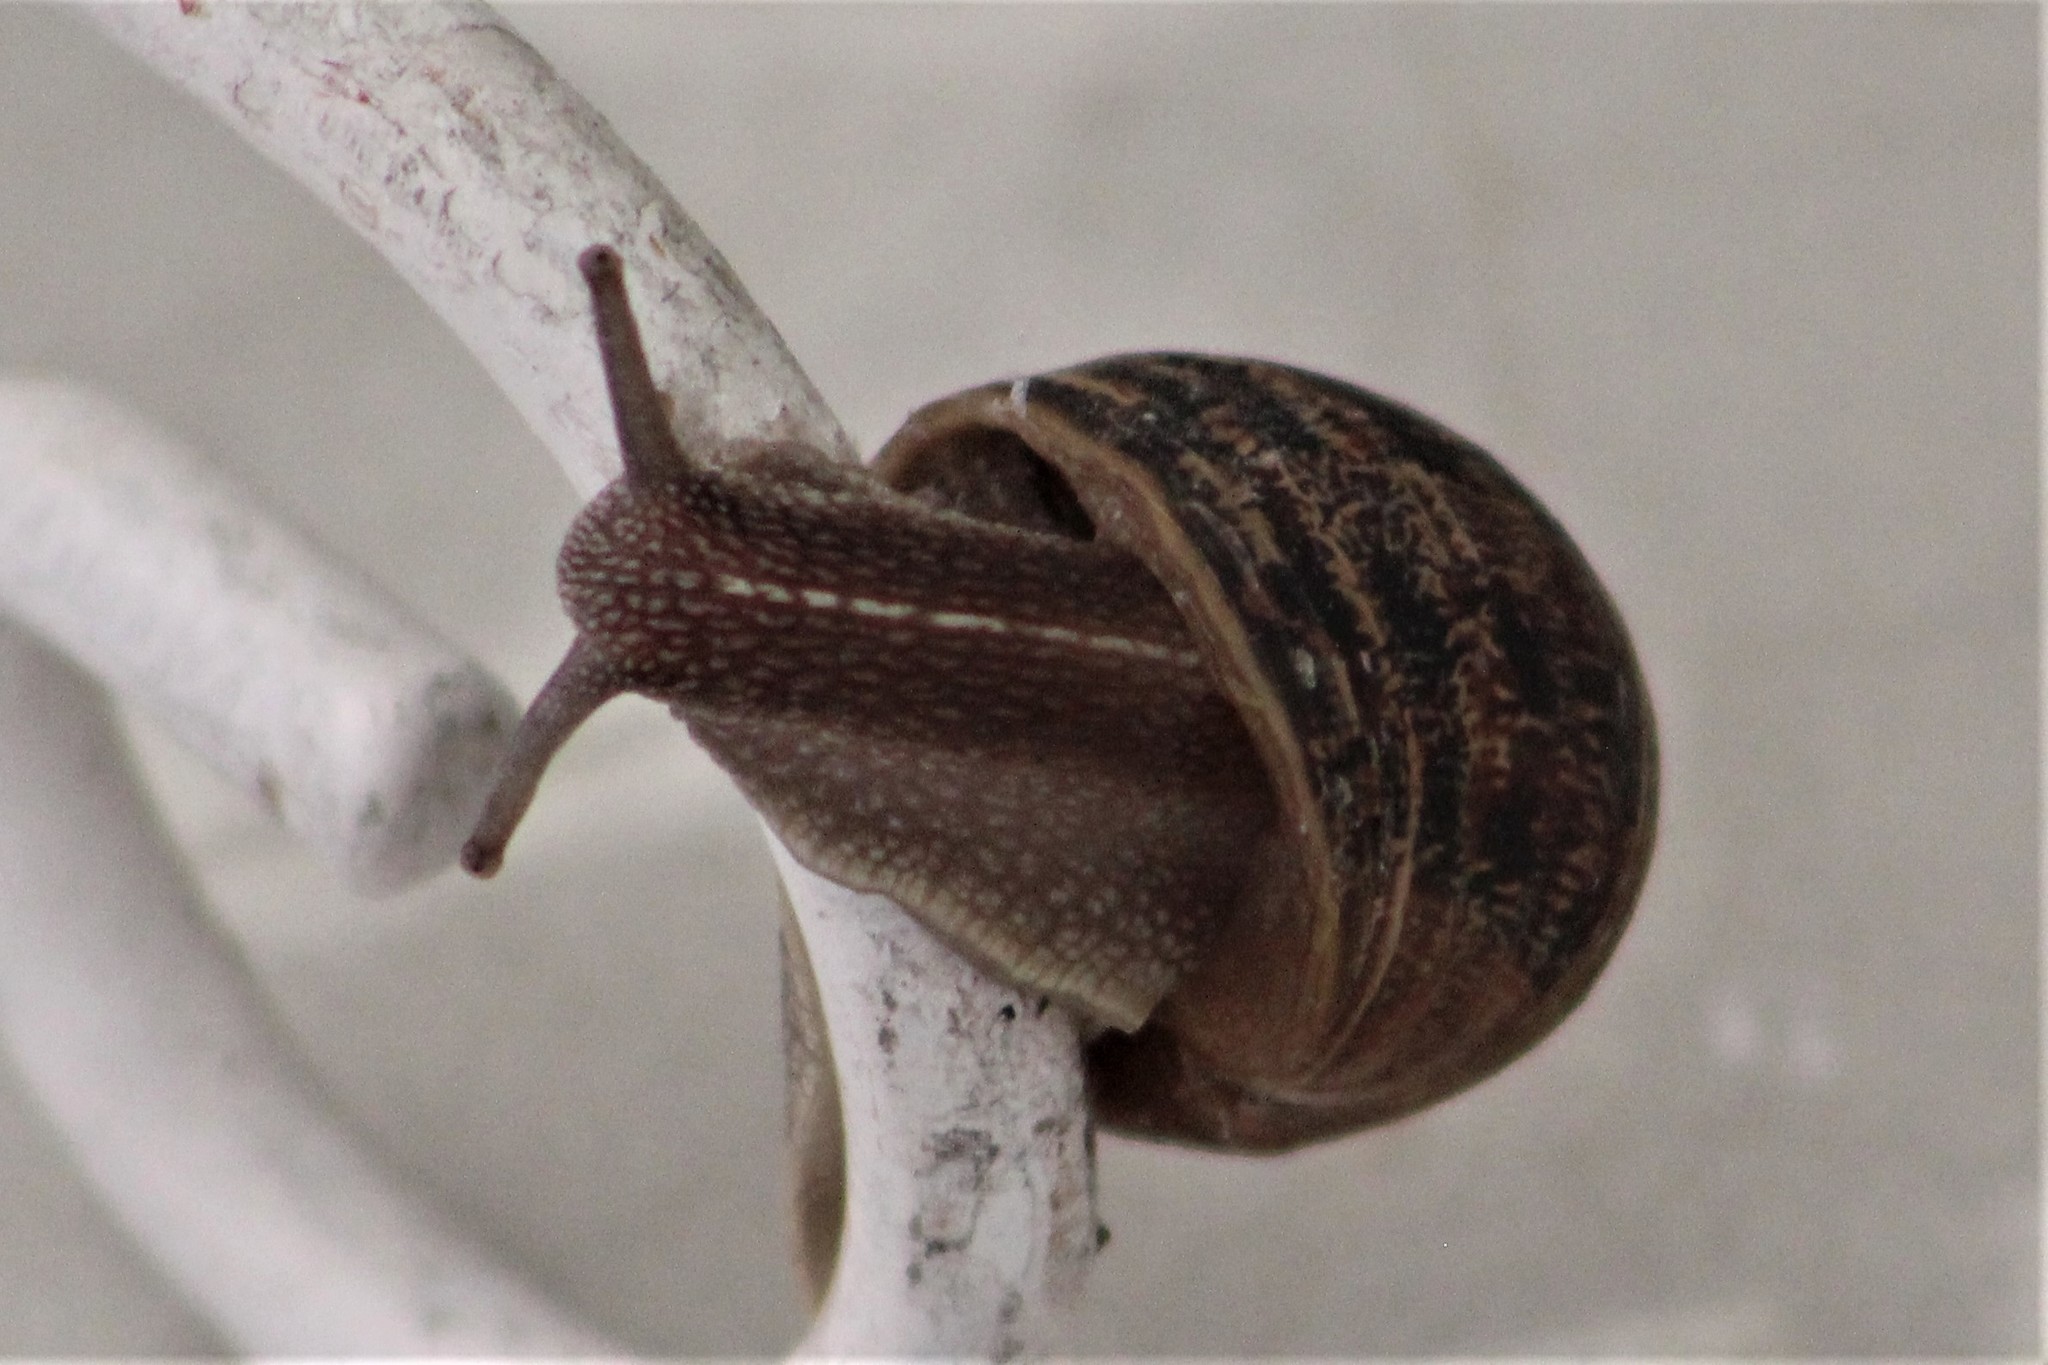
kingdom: Animalia
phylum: Mollusca
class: Gastropoda
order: Stylommatophora
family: Helicidae
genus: Cornu
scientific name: Cornu aspersum
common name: Brown garden snail
